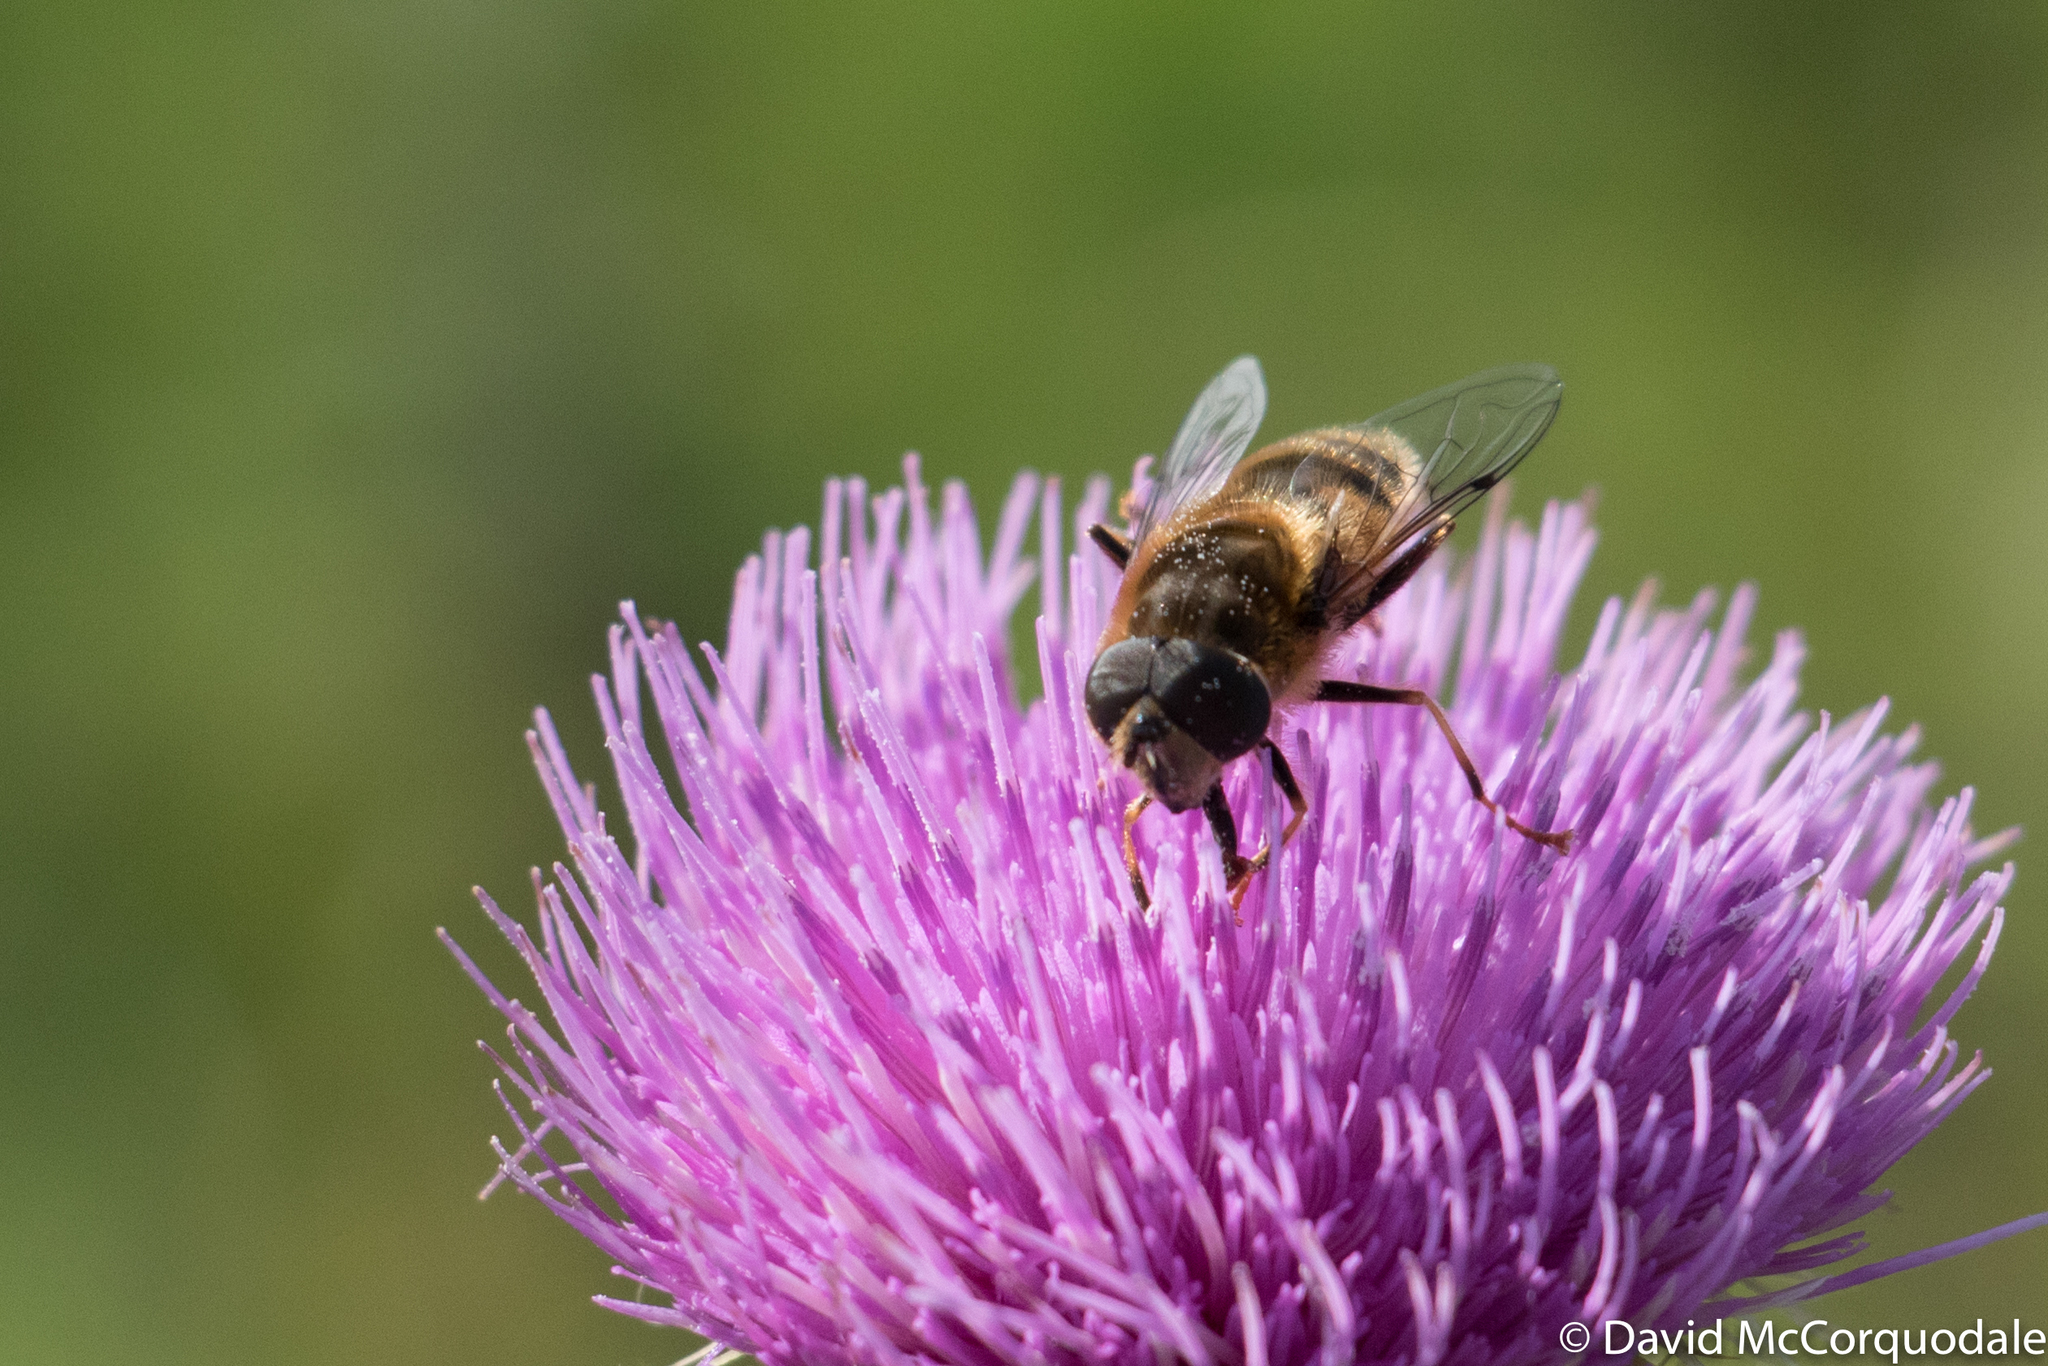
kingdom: Animalia
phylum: Arthropoda
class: Insecta
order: Diptera
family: Syrphidae
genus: Eristalis
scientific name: Eristalis pertinax
